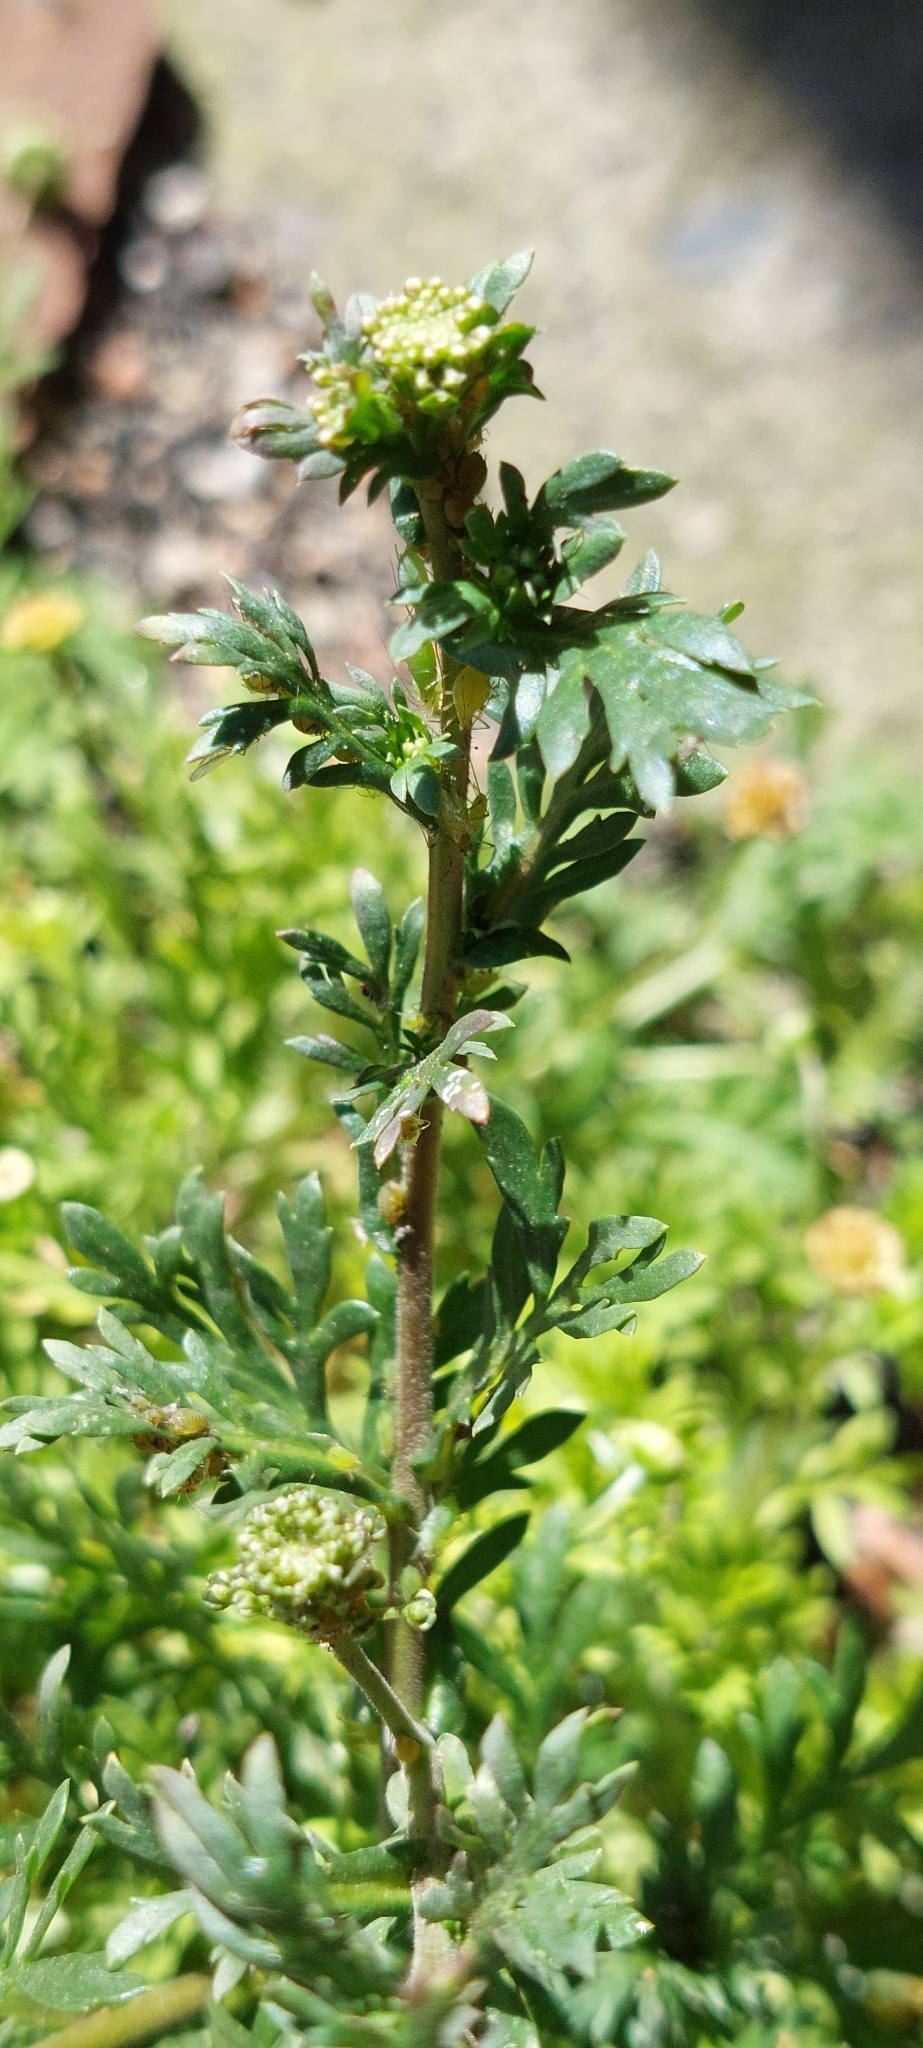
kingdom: Plantae
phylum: Tracheophyta
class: Magnoliopsida
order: Brassicales
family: Brassicaceae
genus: Lepidium
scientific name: Lepidium bipinnatifidum
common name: Wayside pepperwort
